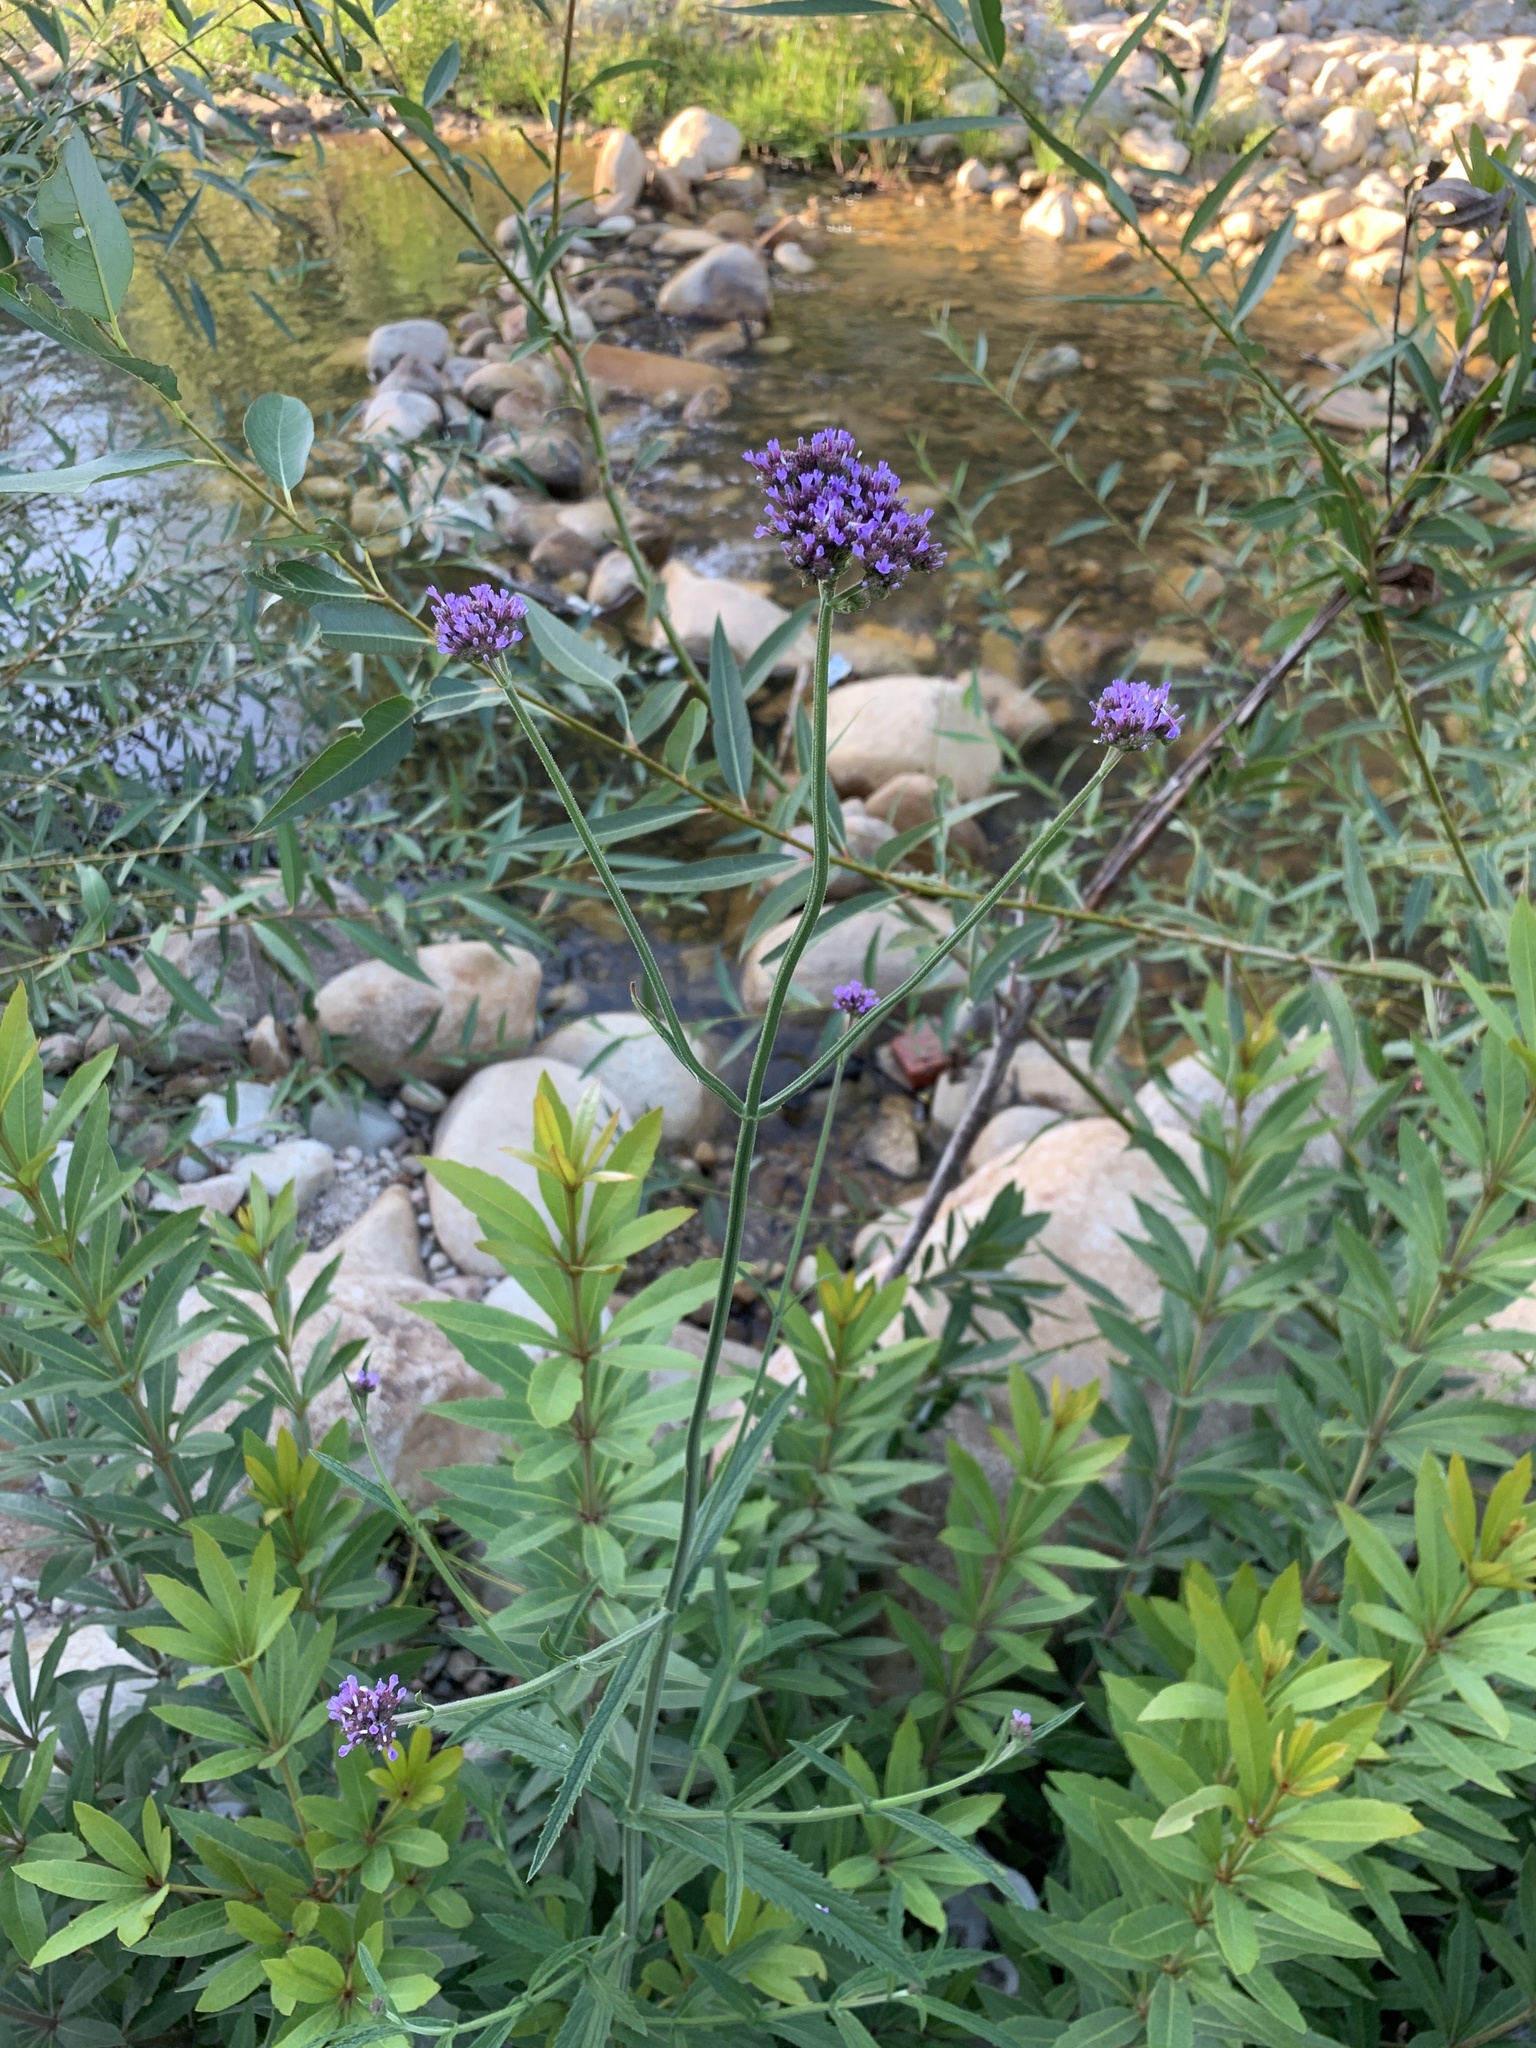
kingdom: Plantae
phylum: Tracheophyta
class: Magnoliopsida
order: Lamiales
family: Verbenaceae
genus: Verbena
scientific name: Verbena bonariensis
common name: Purpletop vervain
